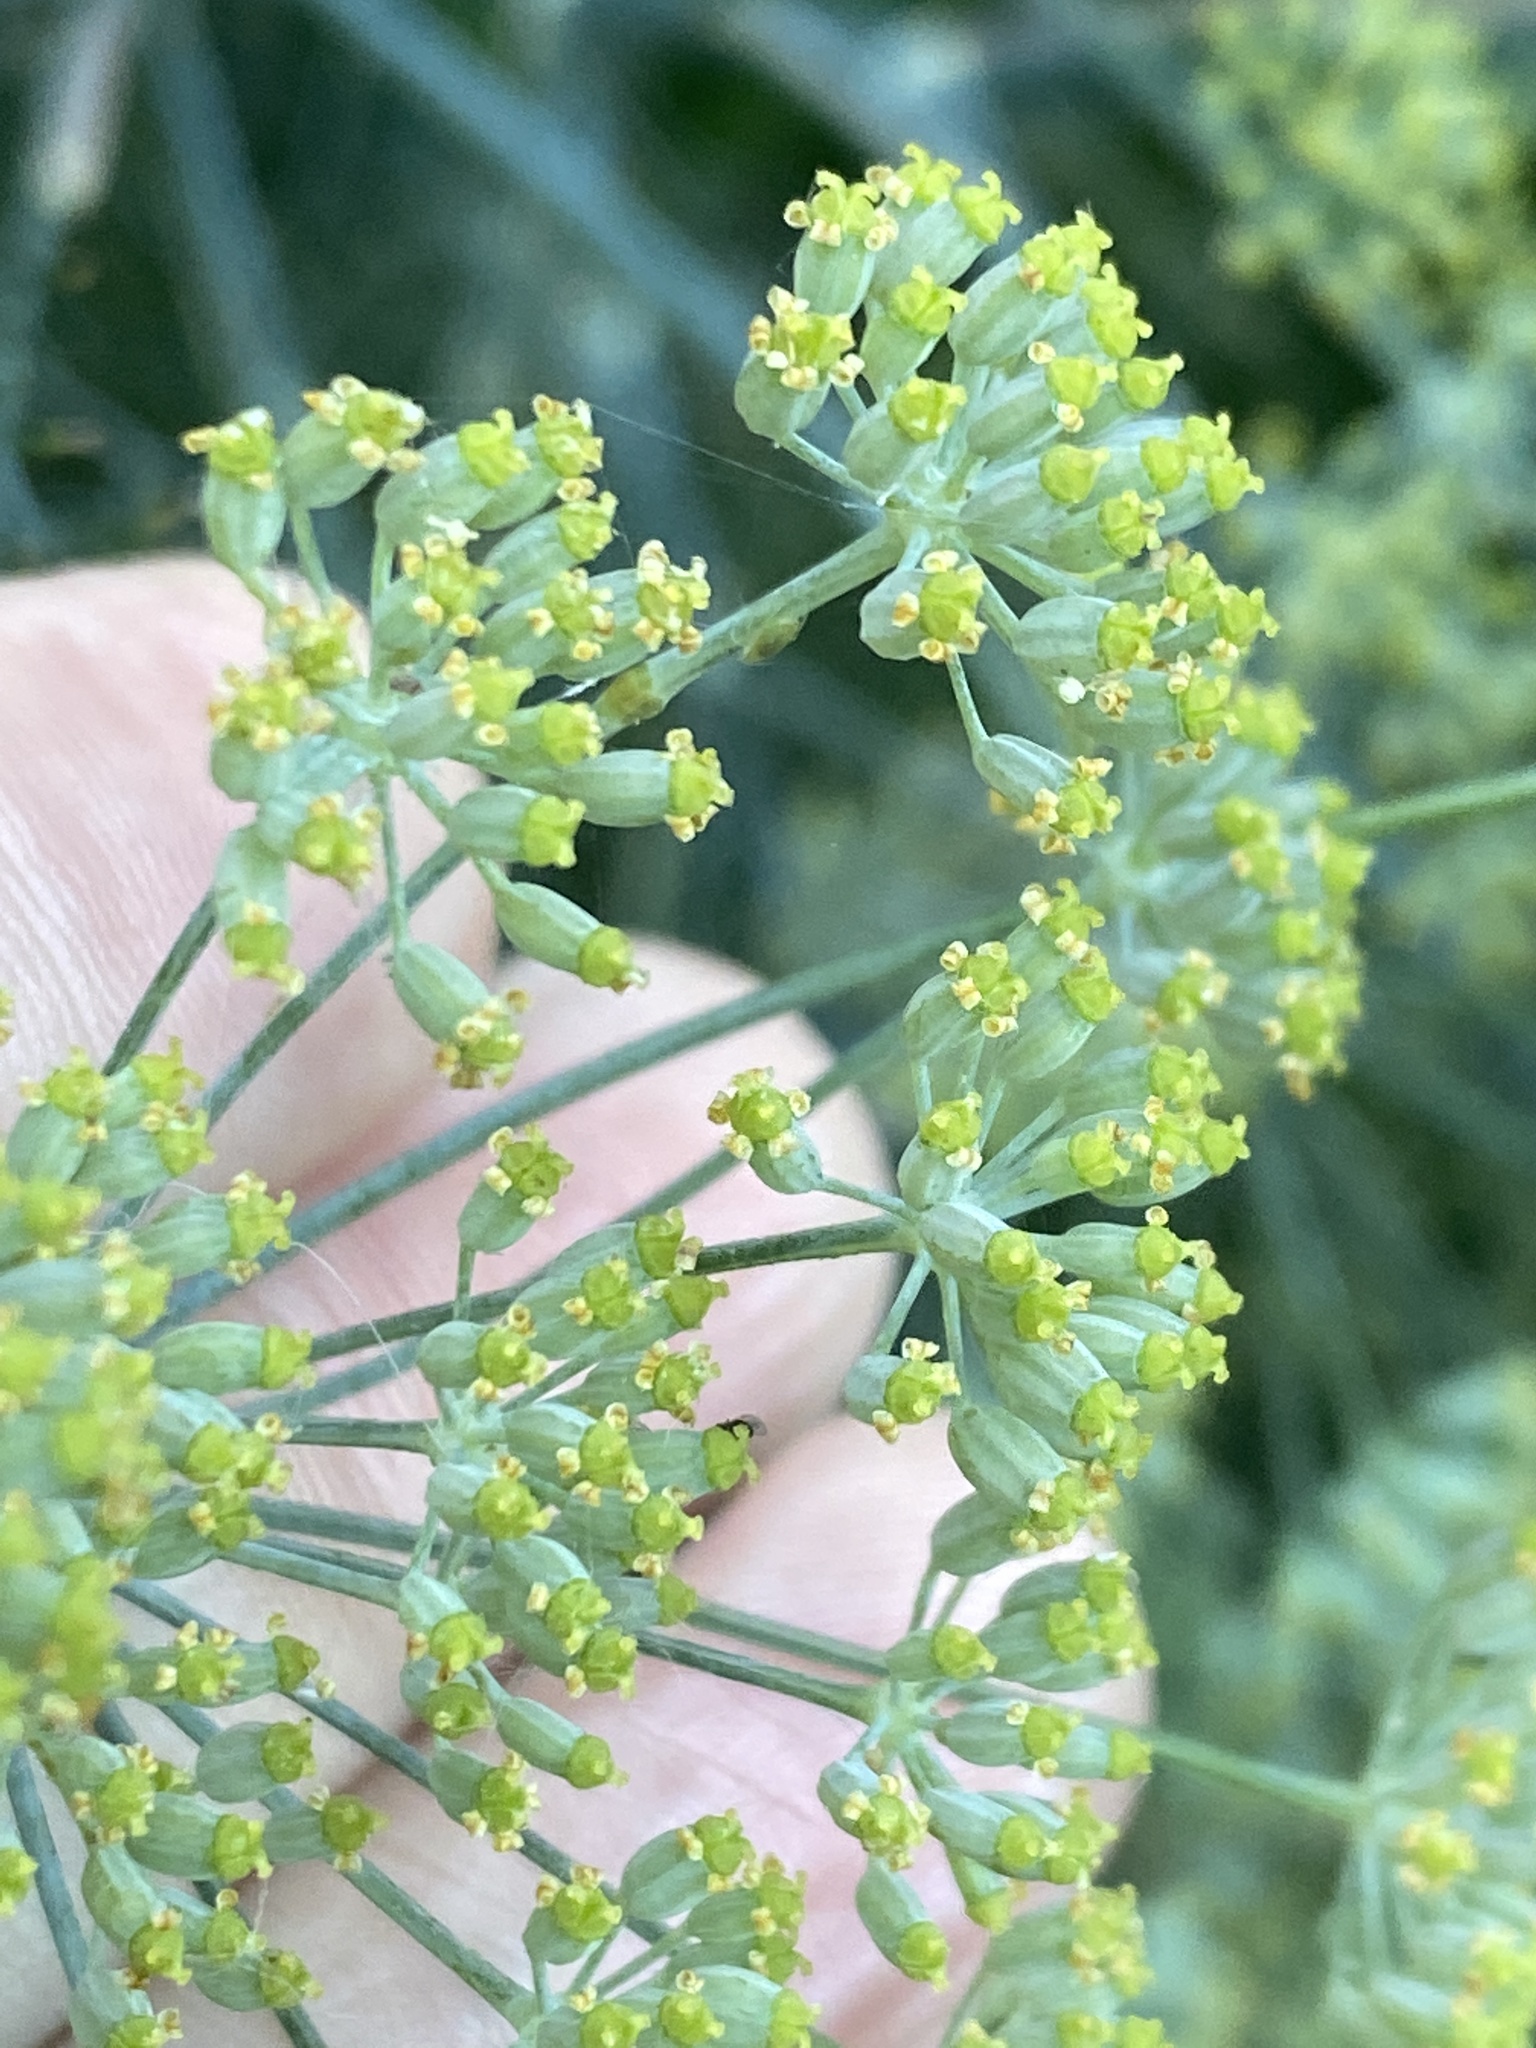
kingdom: Plantae
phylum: Tracheophyta
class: Magnoliopsida
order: Apiales
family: Apiaceae
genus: Anethum
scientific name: Anethum graveolens
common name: Dill
